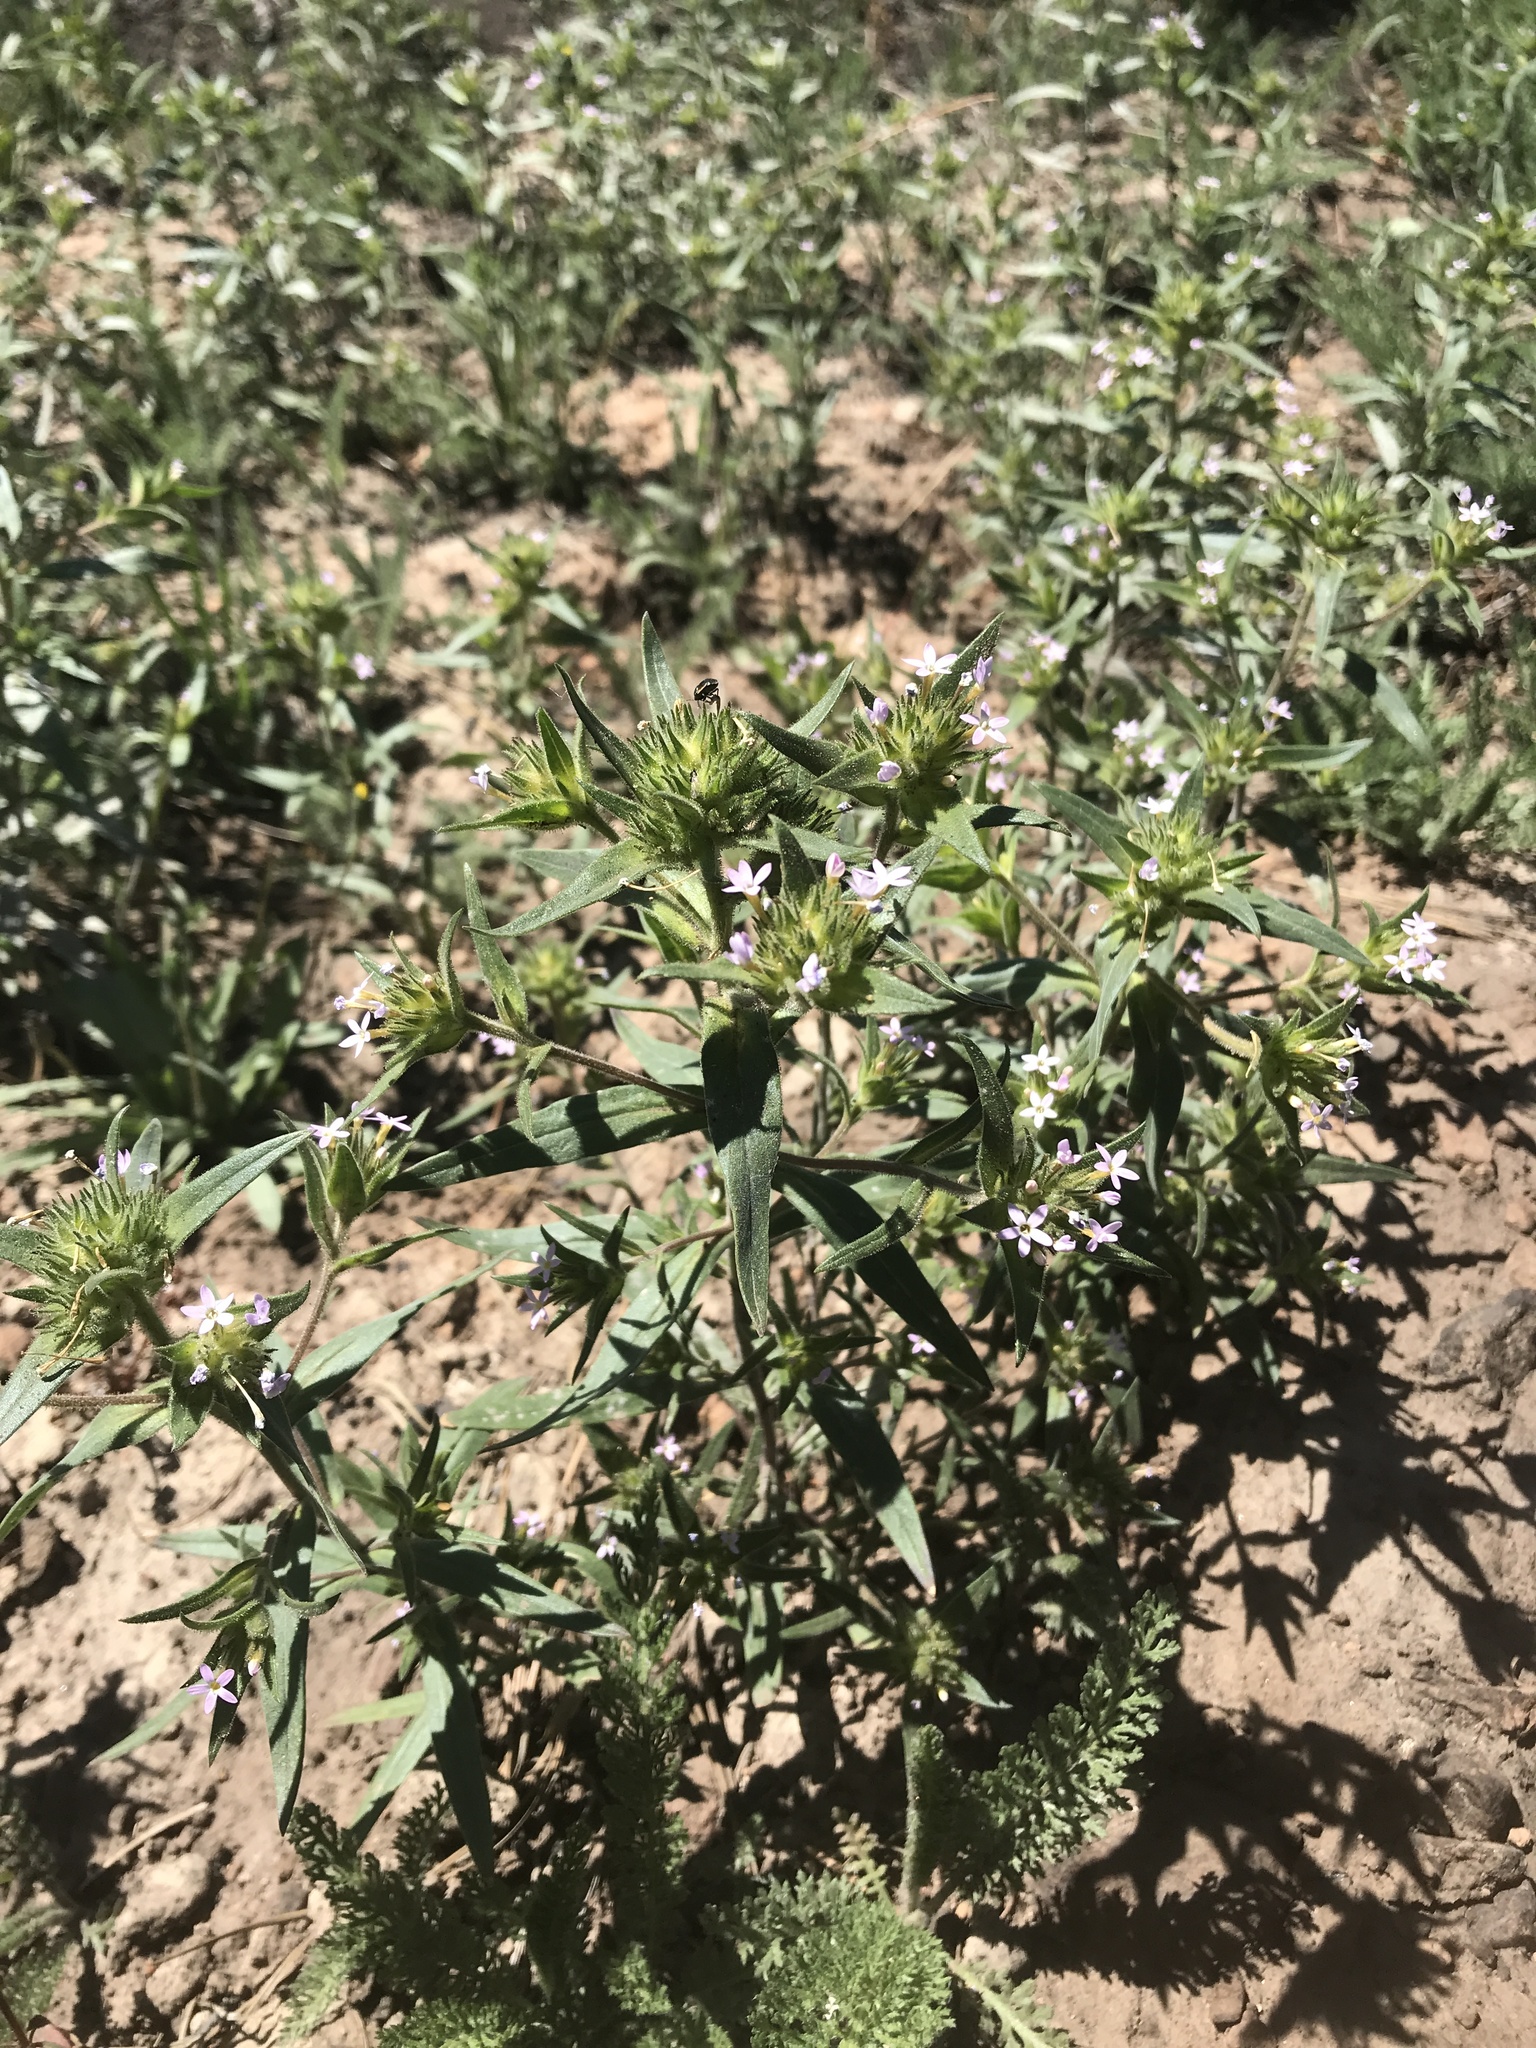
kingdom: Plantae
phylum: Tracheophyta
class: Magnoliopsida
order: Ericales
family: Polemoniaceae
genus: Collomia
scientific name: Collomia linearis
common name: Tiny trumpet
